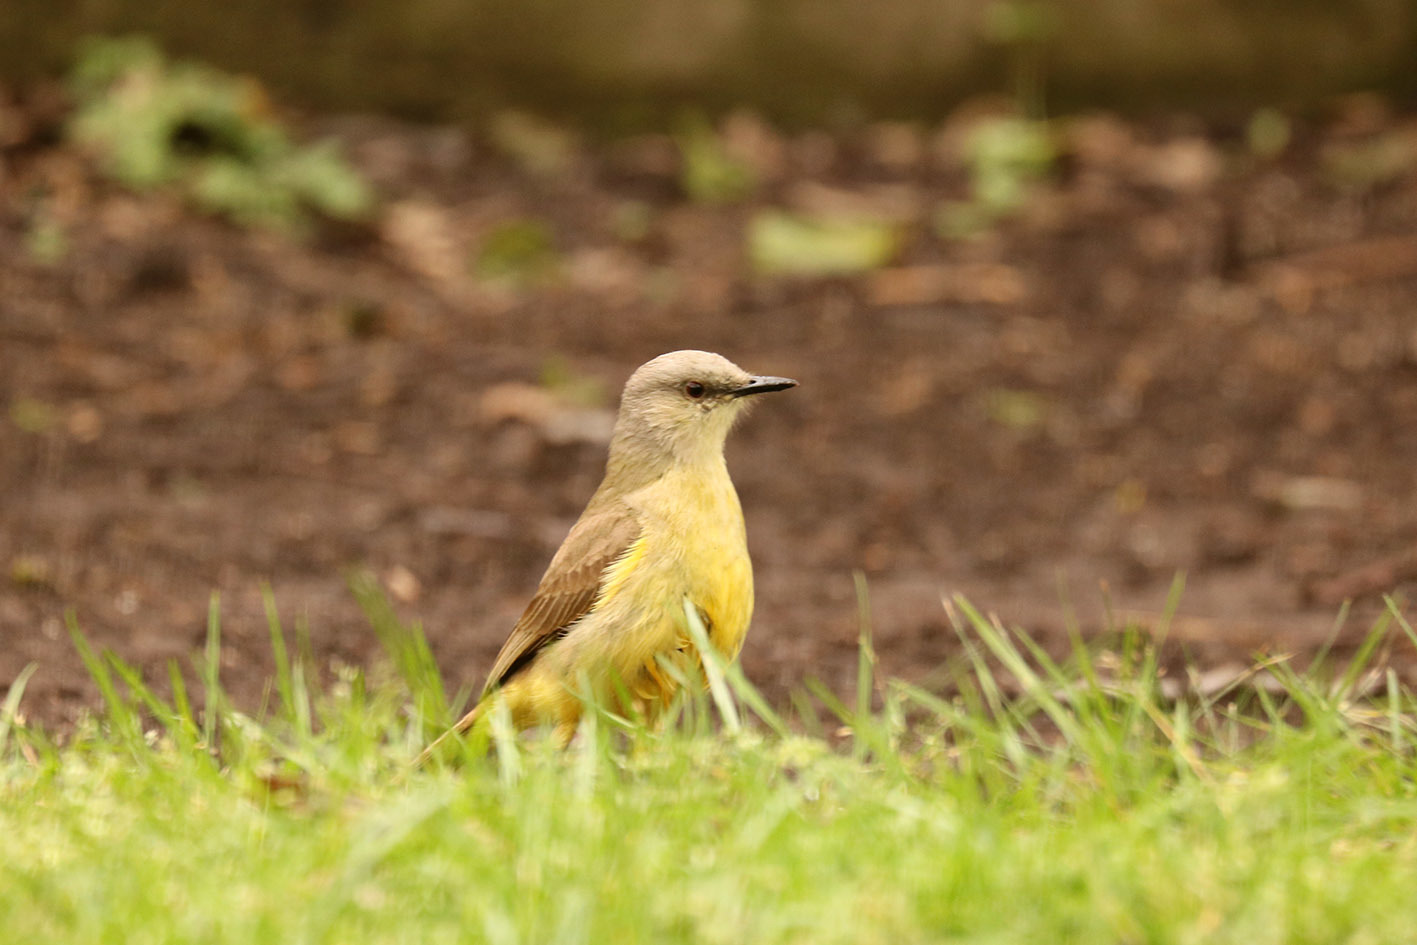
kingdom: Animalia
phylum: Chordata
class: Aves
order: Passeriformes
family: Tyrannidae
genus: Machetornis
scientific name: Machetornis rixosa
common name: Cattle tyrant
